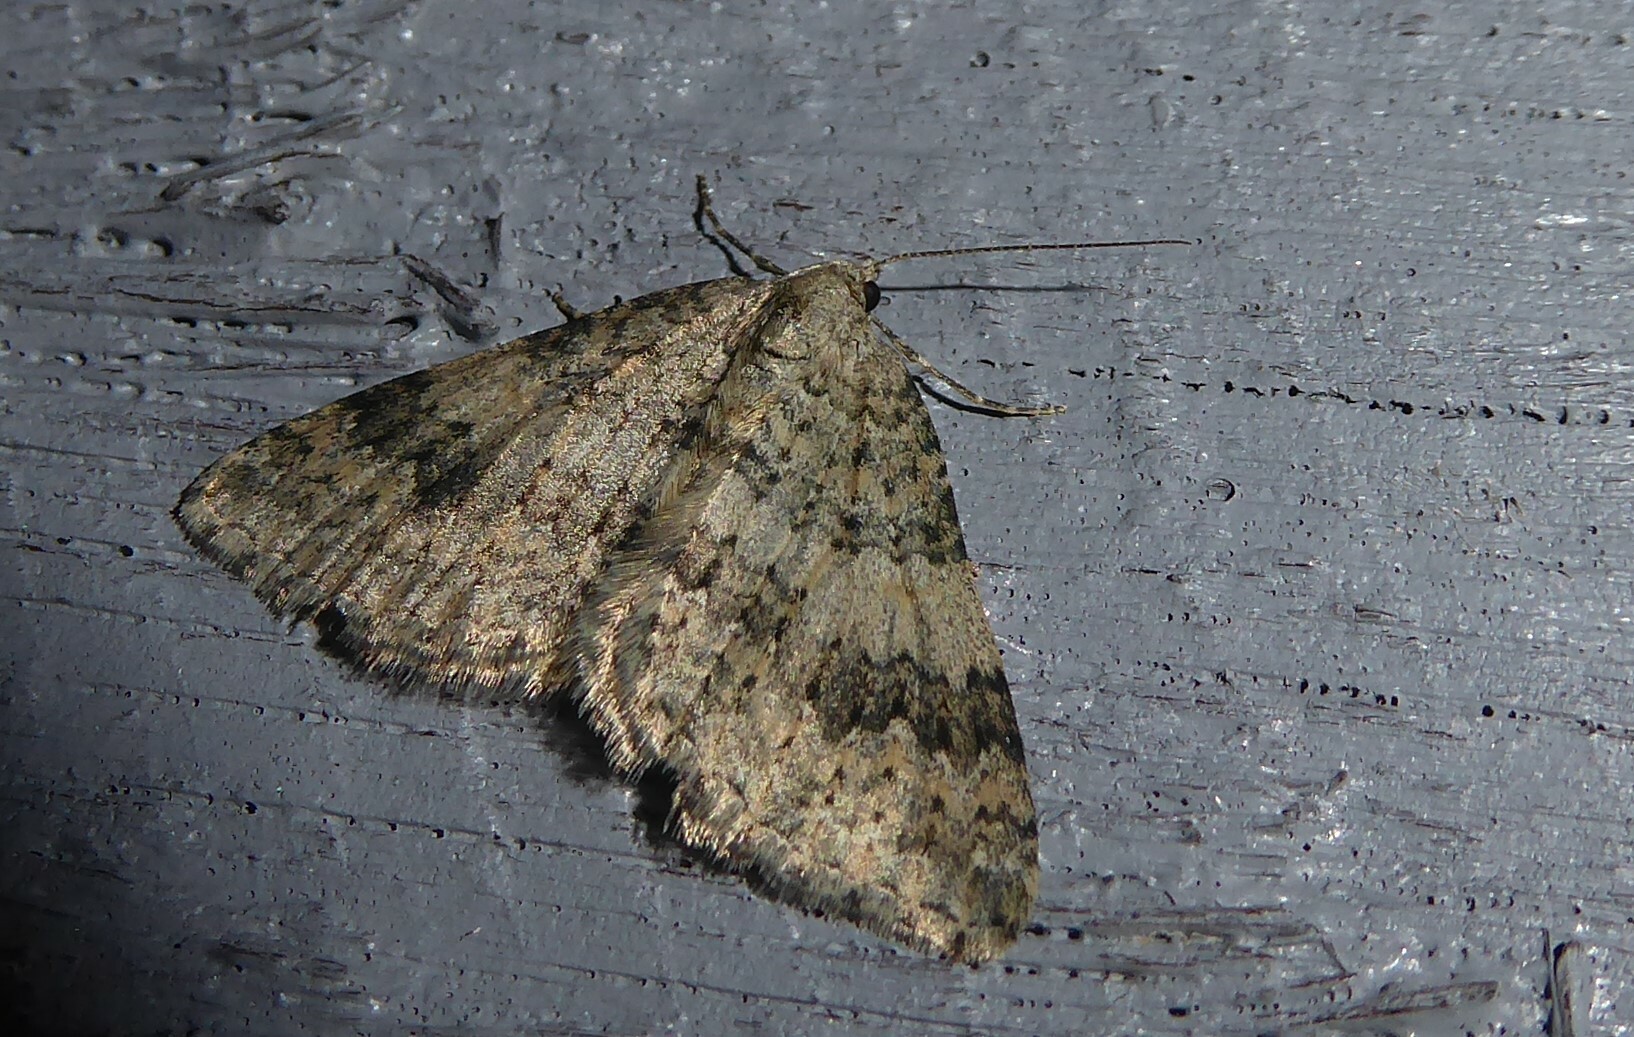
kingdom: Animalia
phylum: Arthropoda
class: Insecta
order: Lepidoptera
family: Geometridae
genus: Helastia
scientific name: Helastia corcularia
